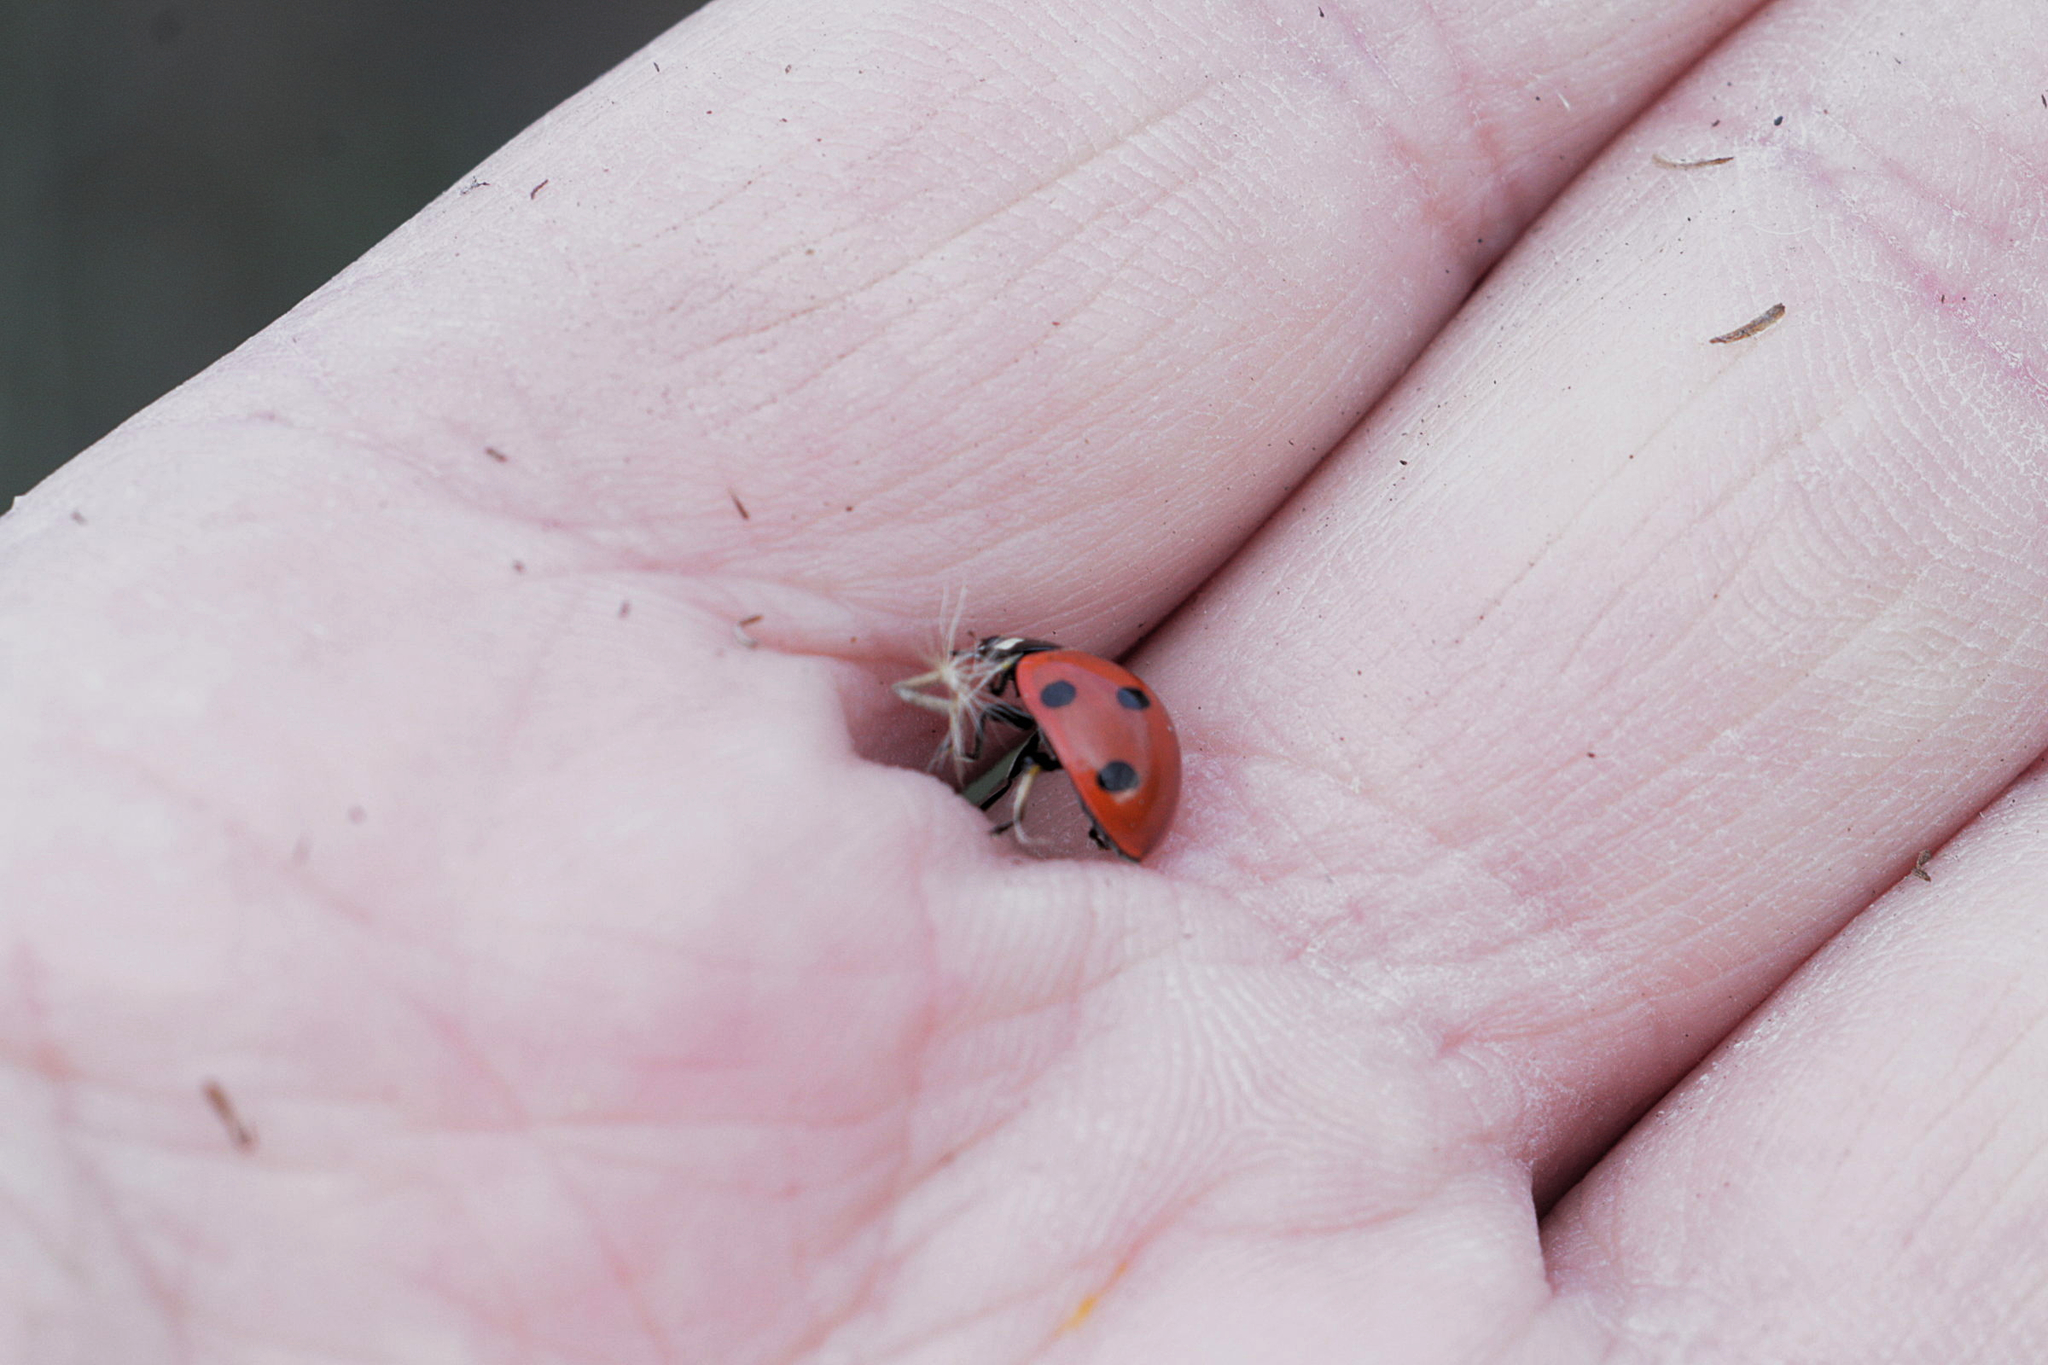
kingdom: Animalia
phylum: Arthropoda
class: Insecta
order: Coleoptera
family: Coccinellidae
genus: Coccinella
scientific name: Coccinella septempunctata
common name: Sevenspotted lady beetle
